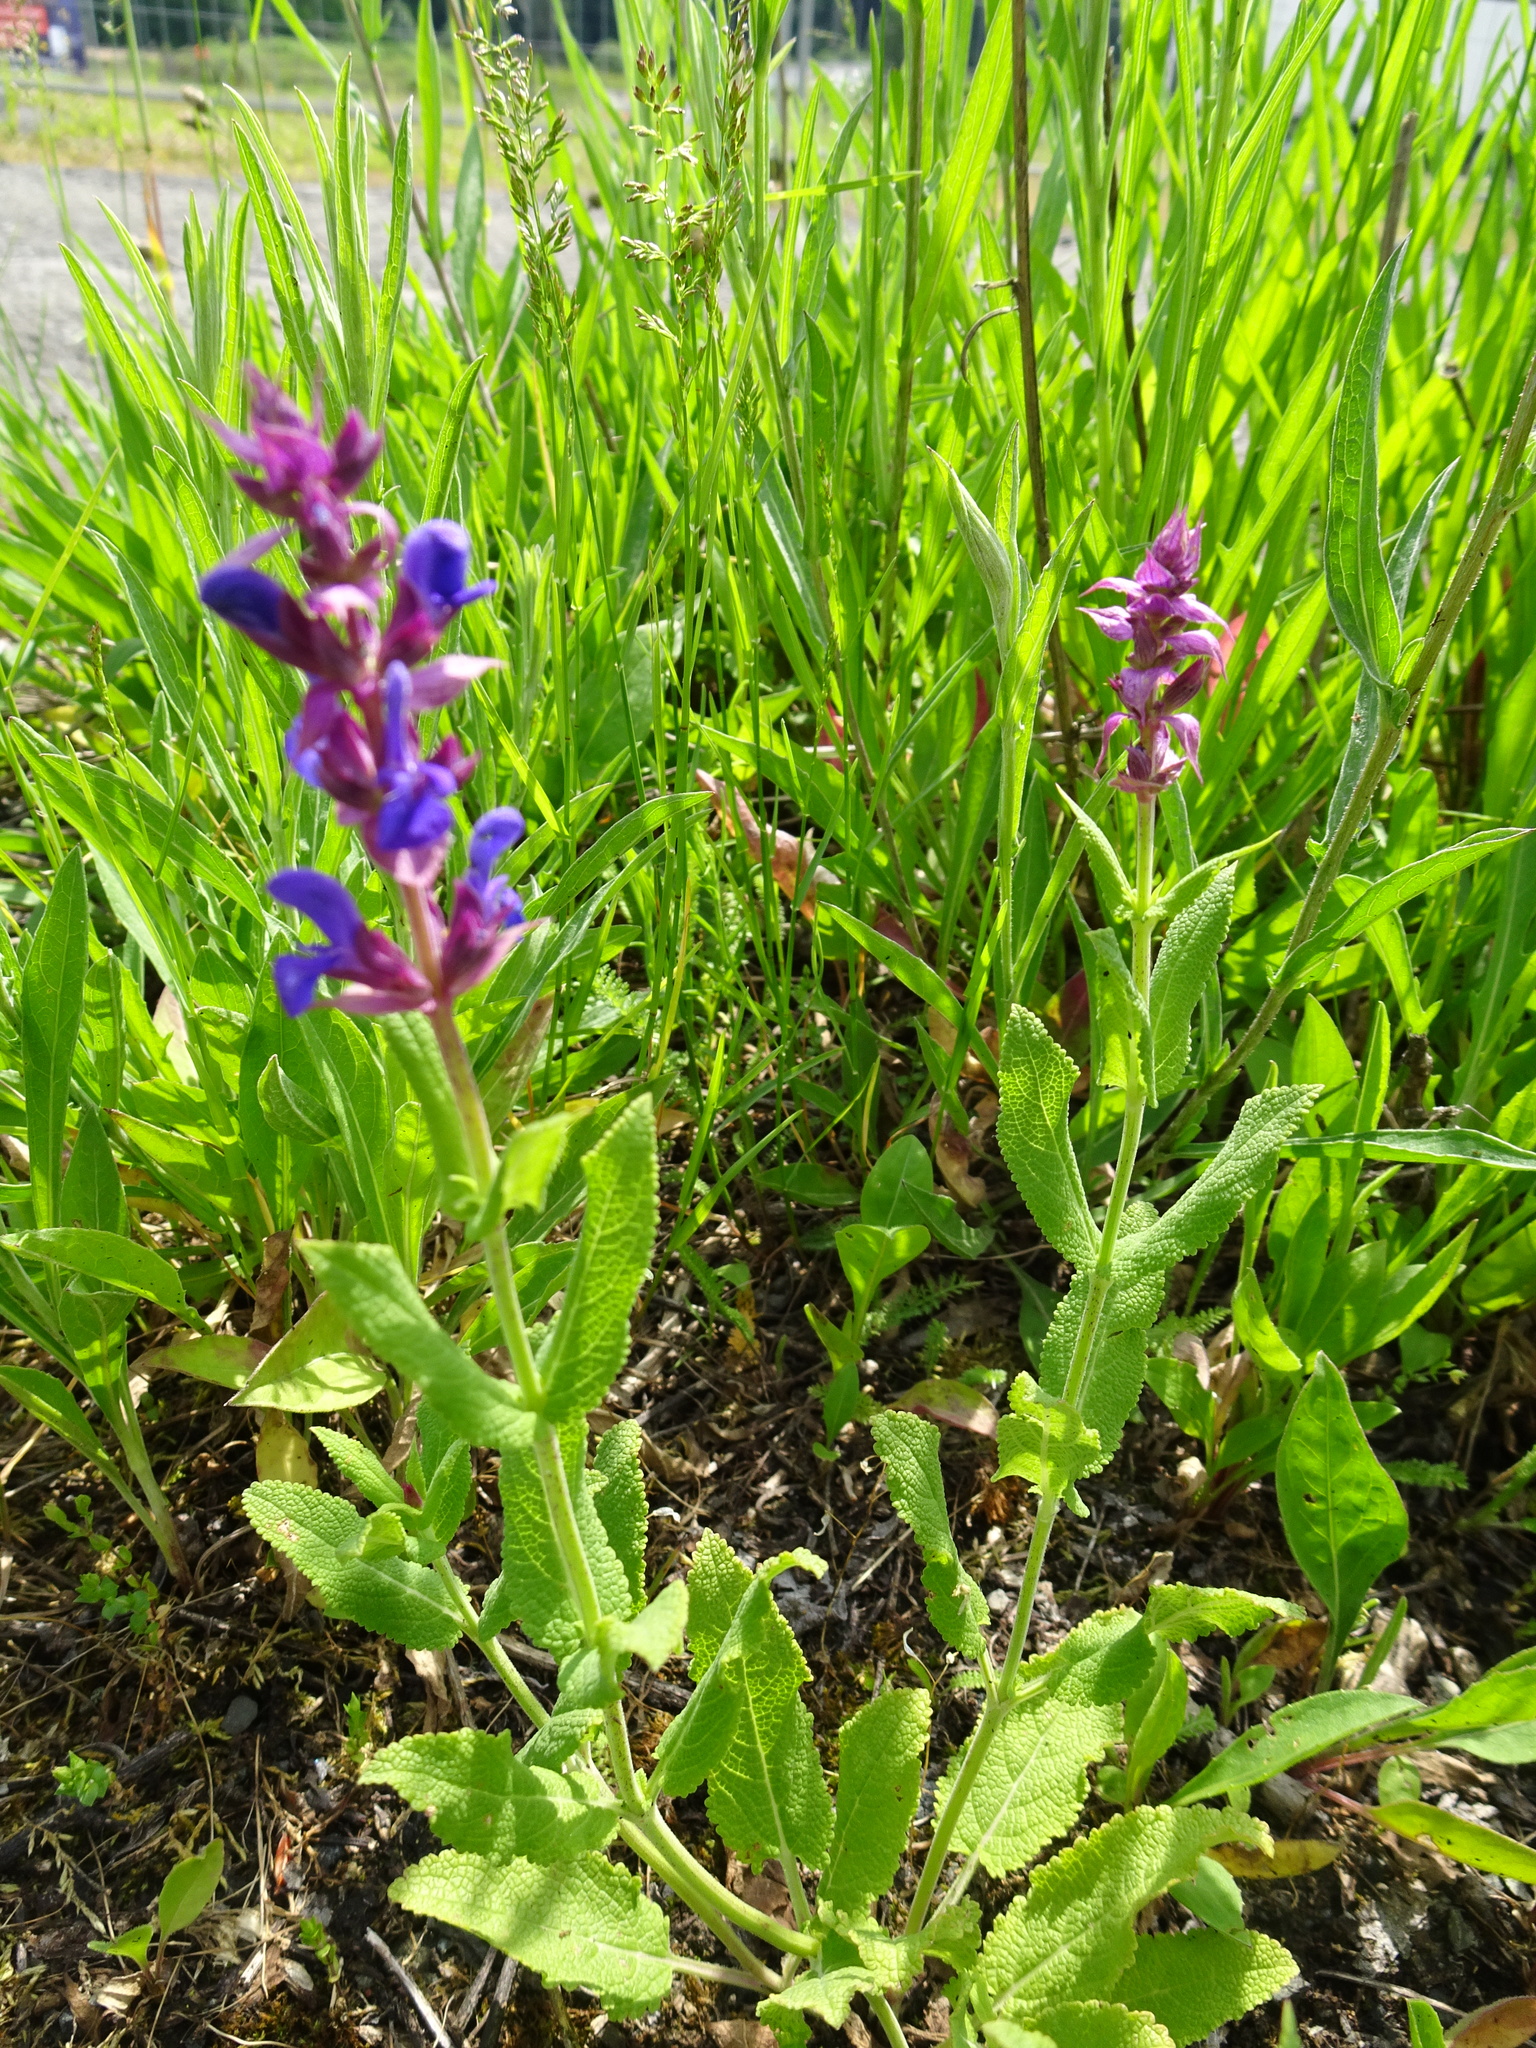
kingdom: Plantae
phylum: Tracheophyta
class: Magnoliopsida
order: Lamiales
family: Lamiaceae
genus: Salvia
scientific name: Salvia nemorosa
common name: Balkan clary
